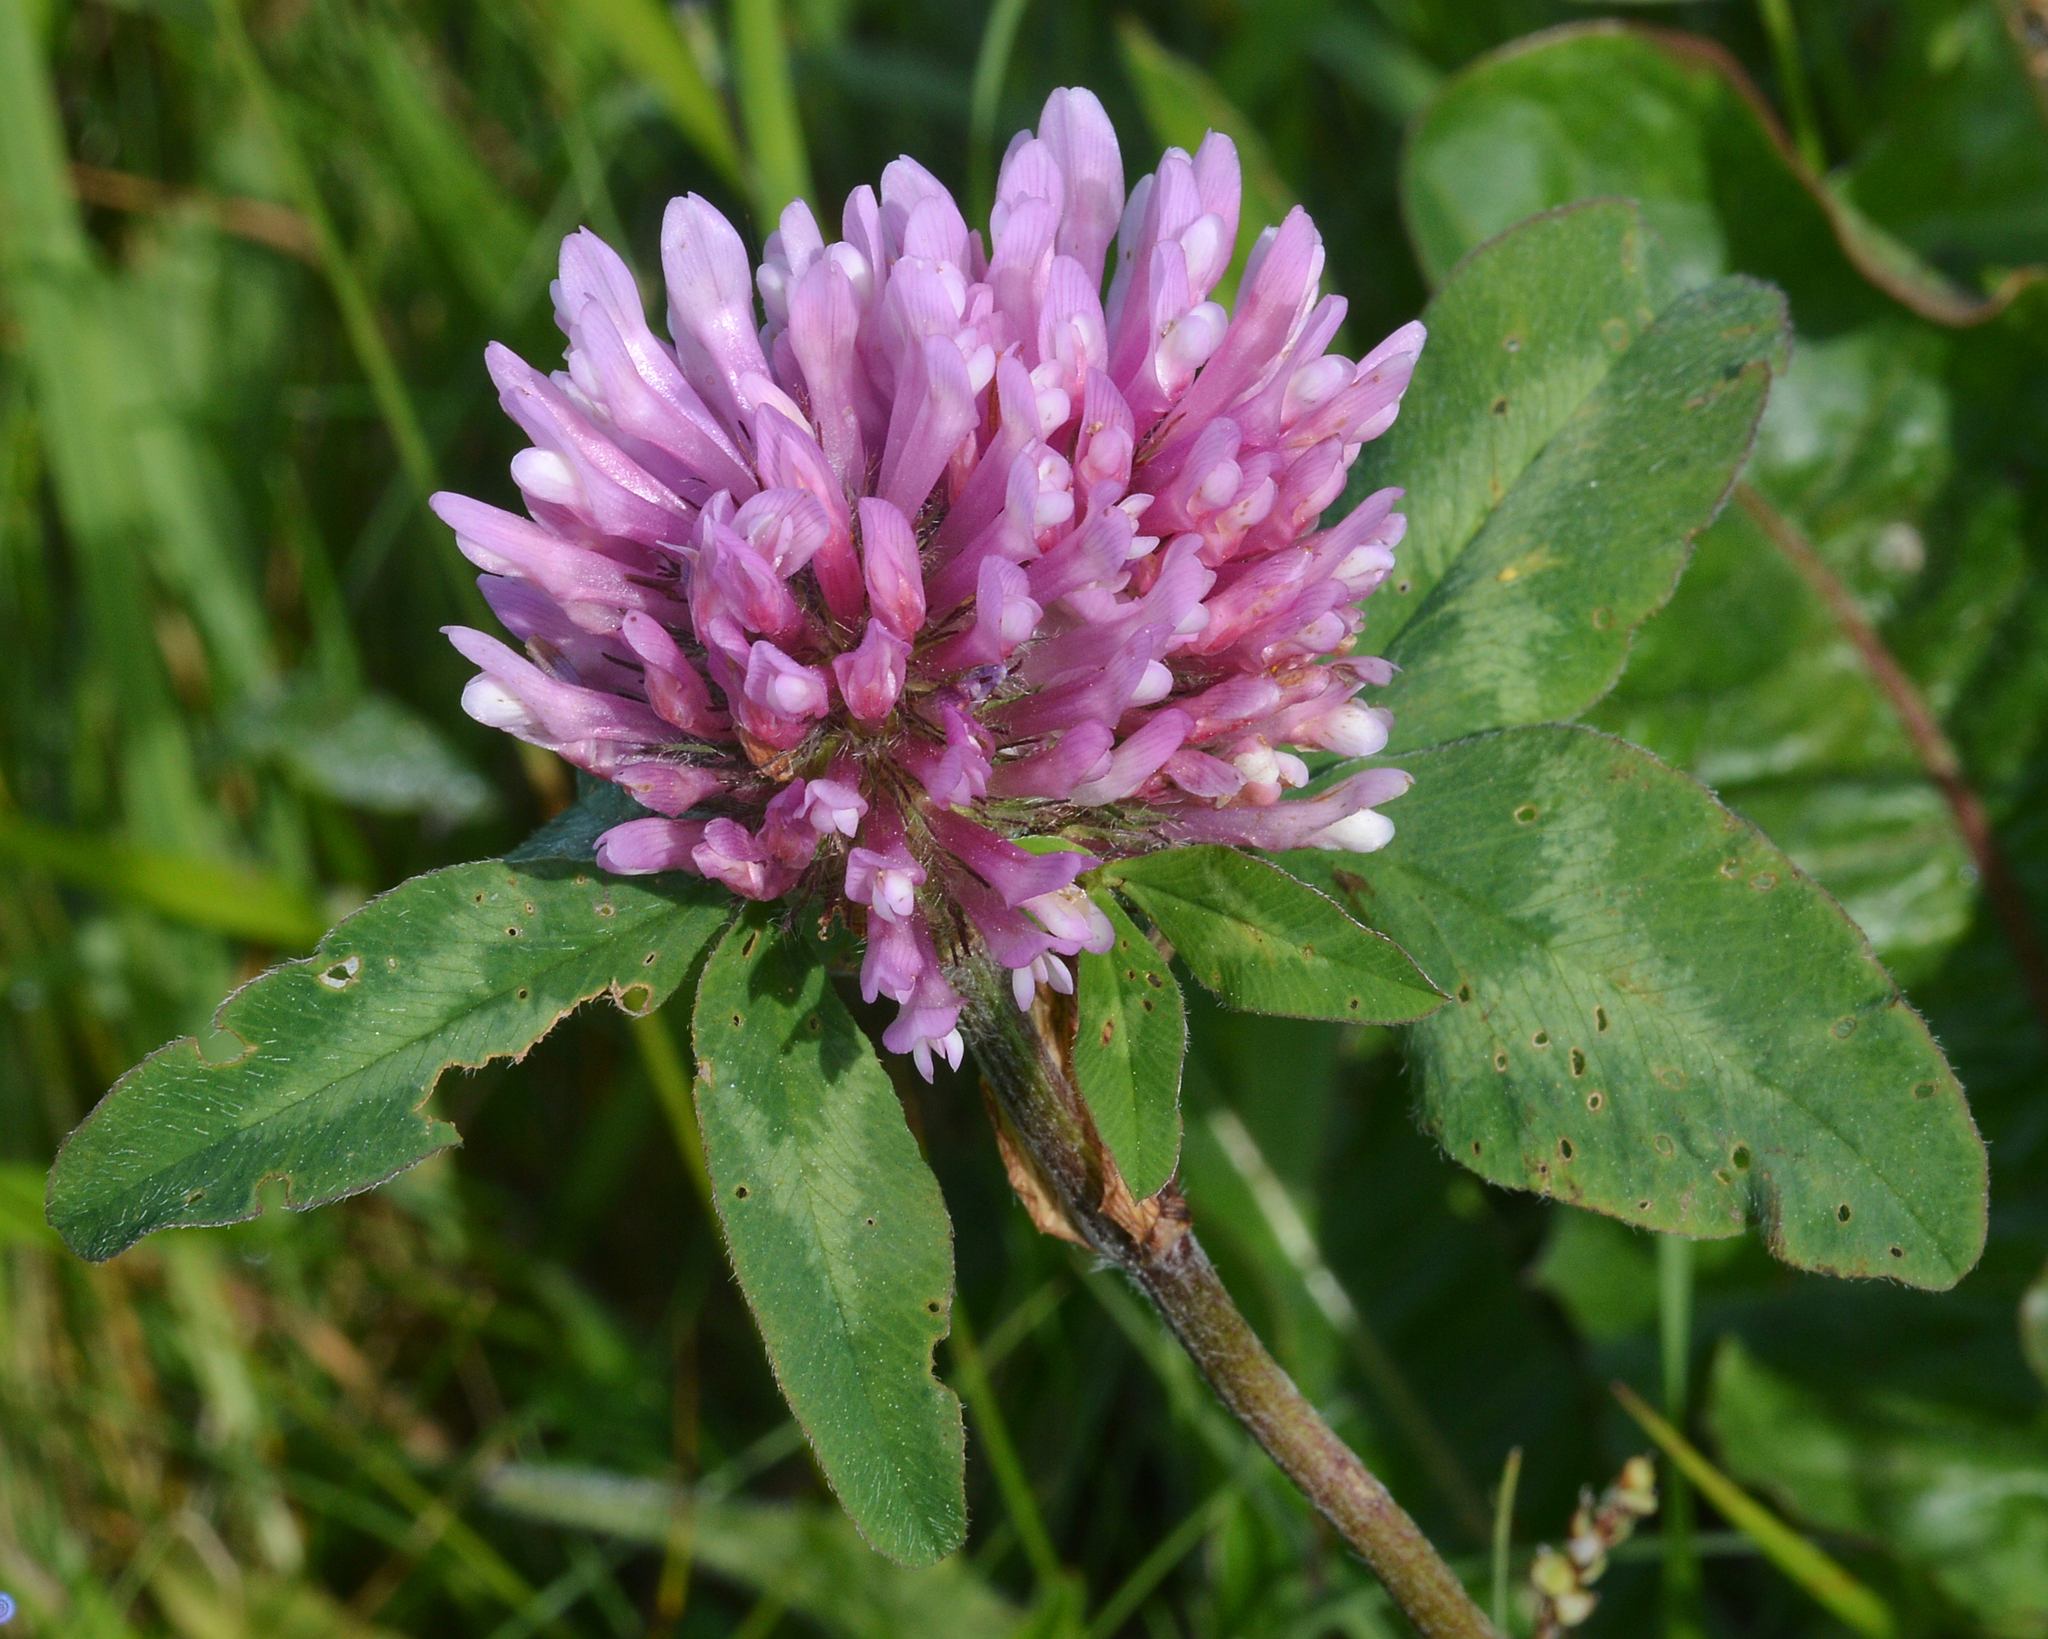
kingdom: Plantae
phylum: Tracheophyta
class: Magnoliopsida
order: Fabales
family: Fabaceae
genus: Trifolium
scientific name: Trifolium pratense
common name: Red clover
